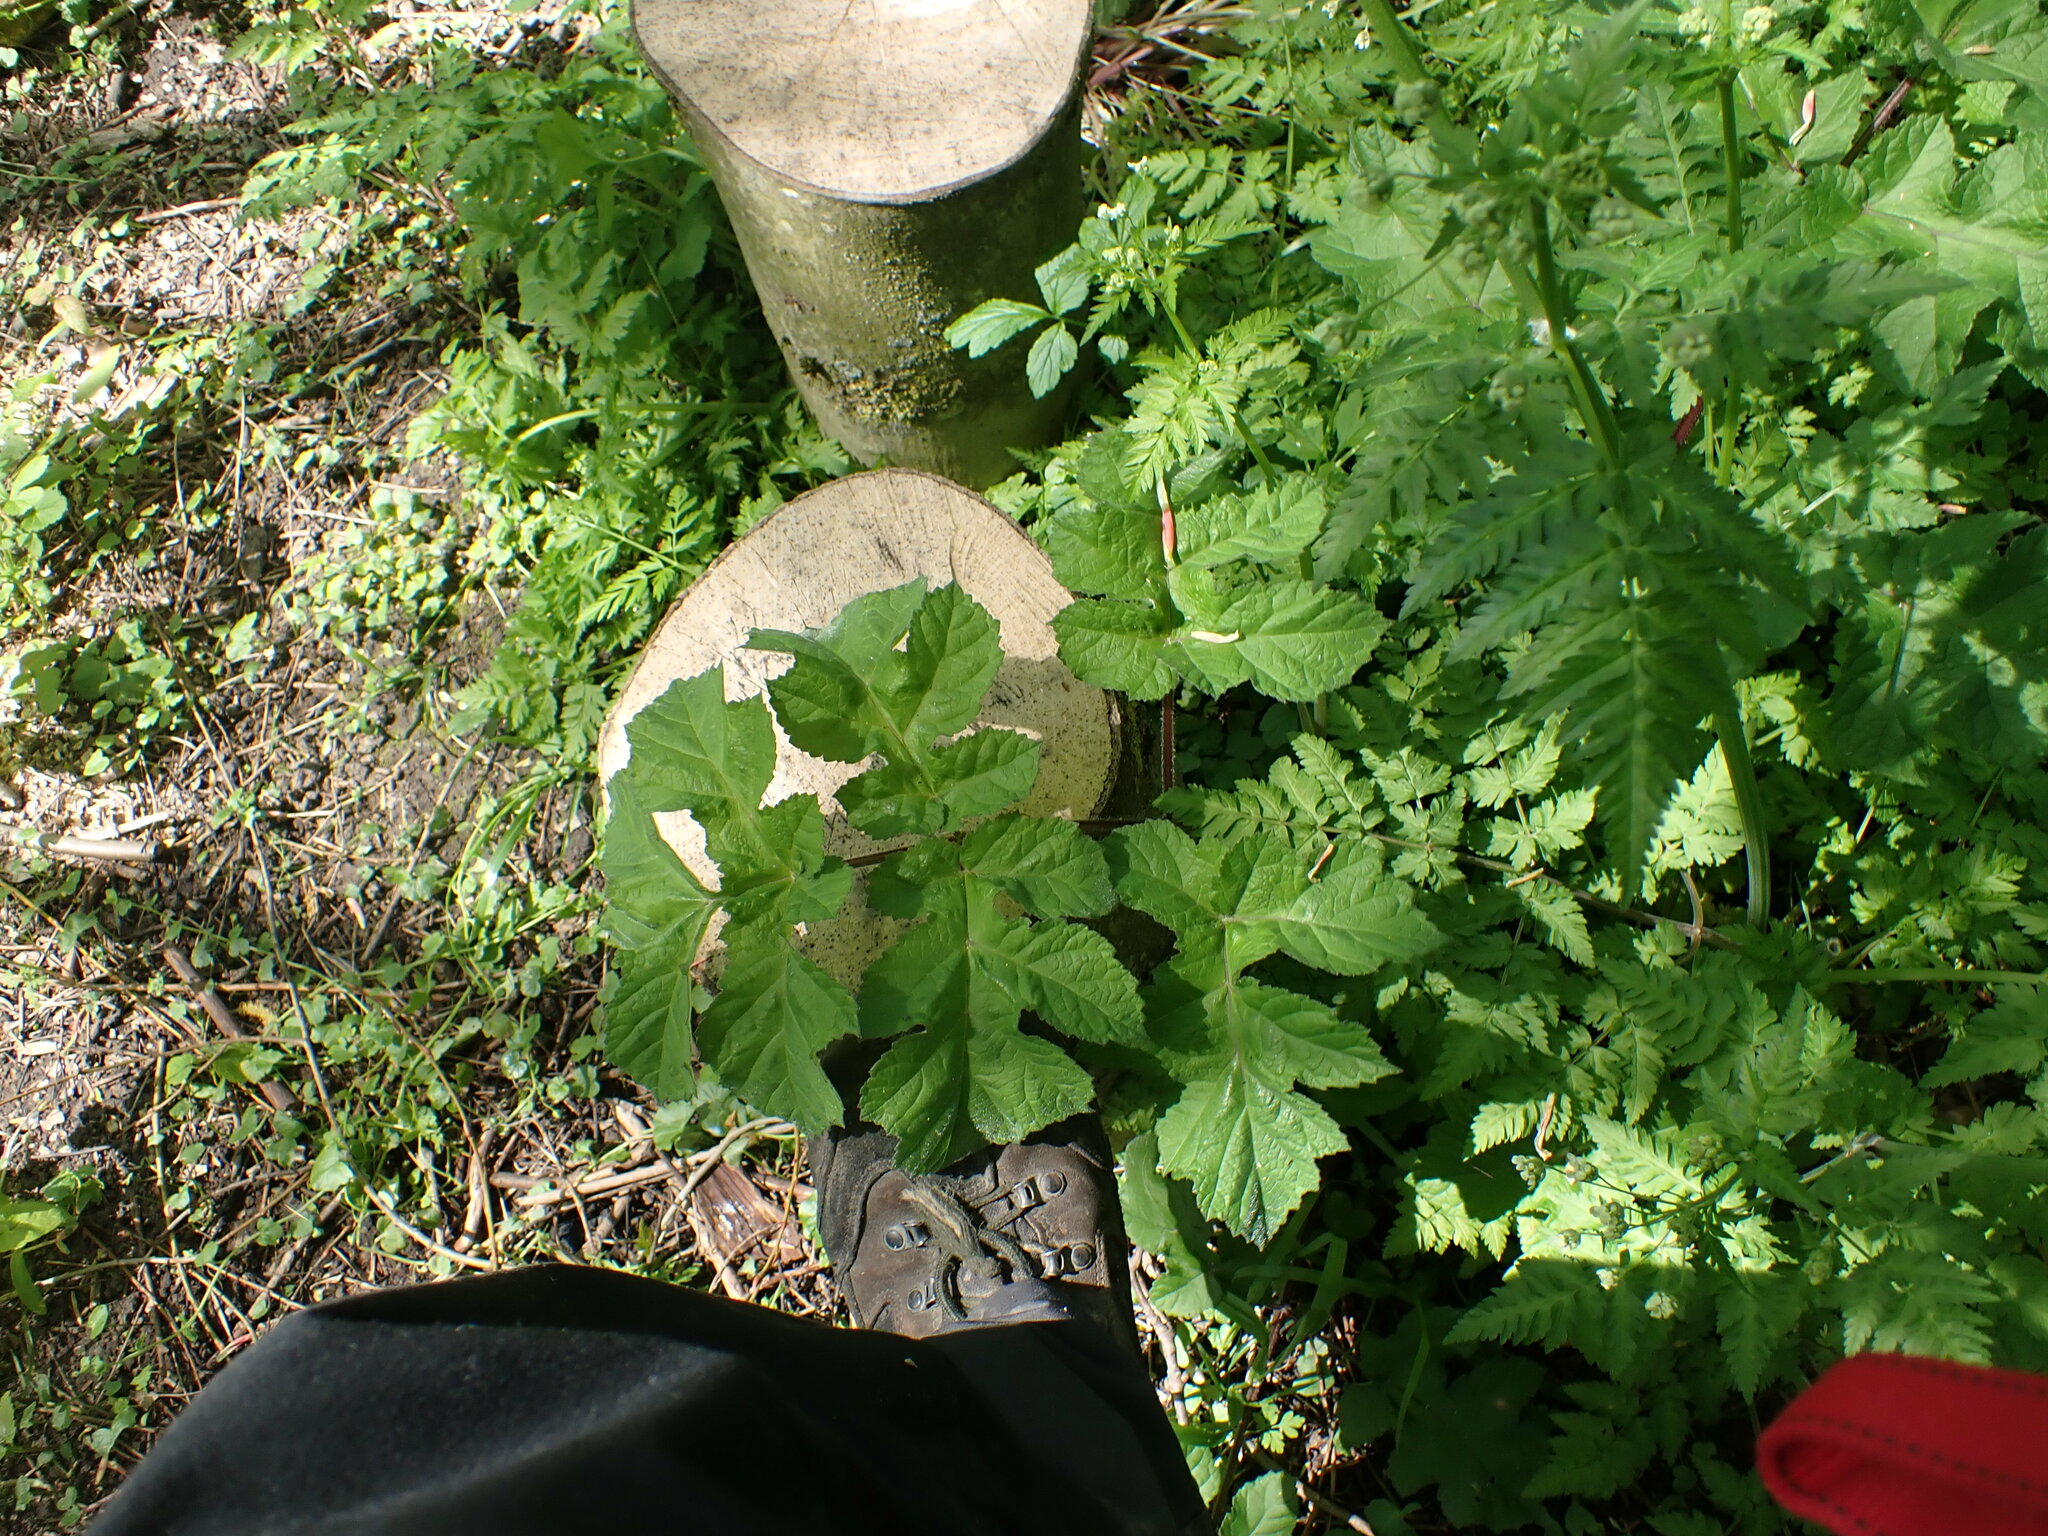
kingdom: Plantae
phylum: Tracheophyta
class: Magnoliopsida
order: Apiales
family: Apiaceae
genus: Heracleum
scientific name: Heracleum sphondylium
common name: Hogweed
